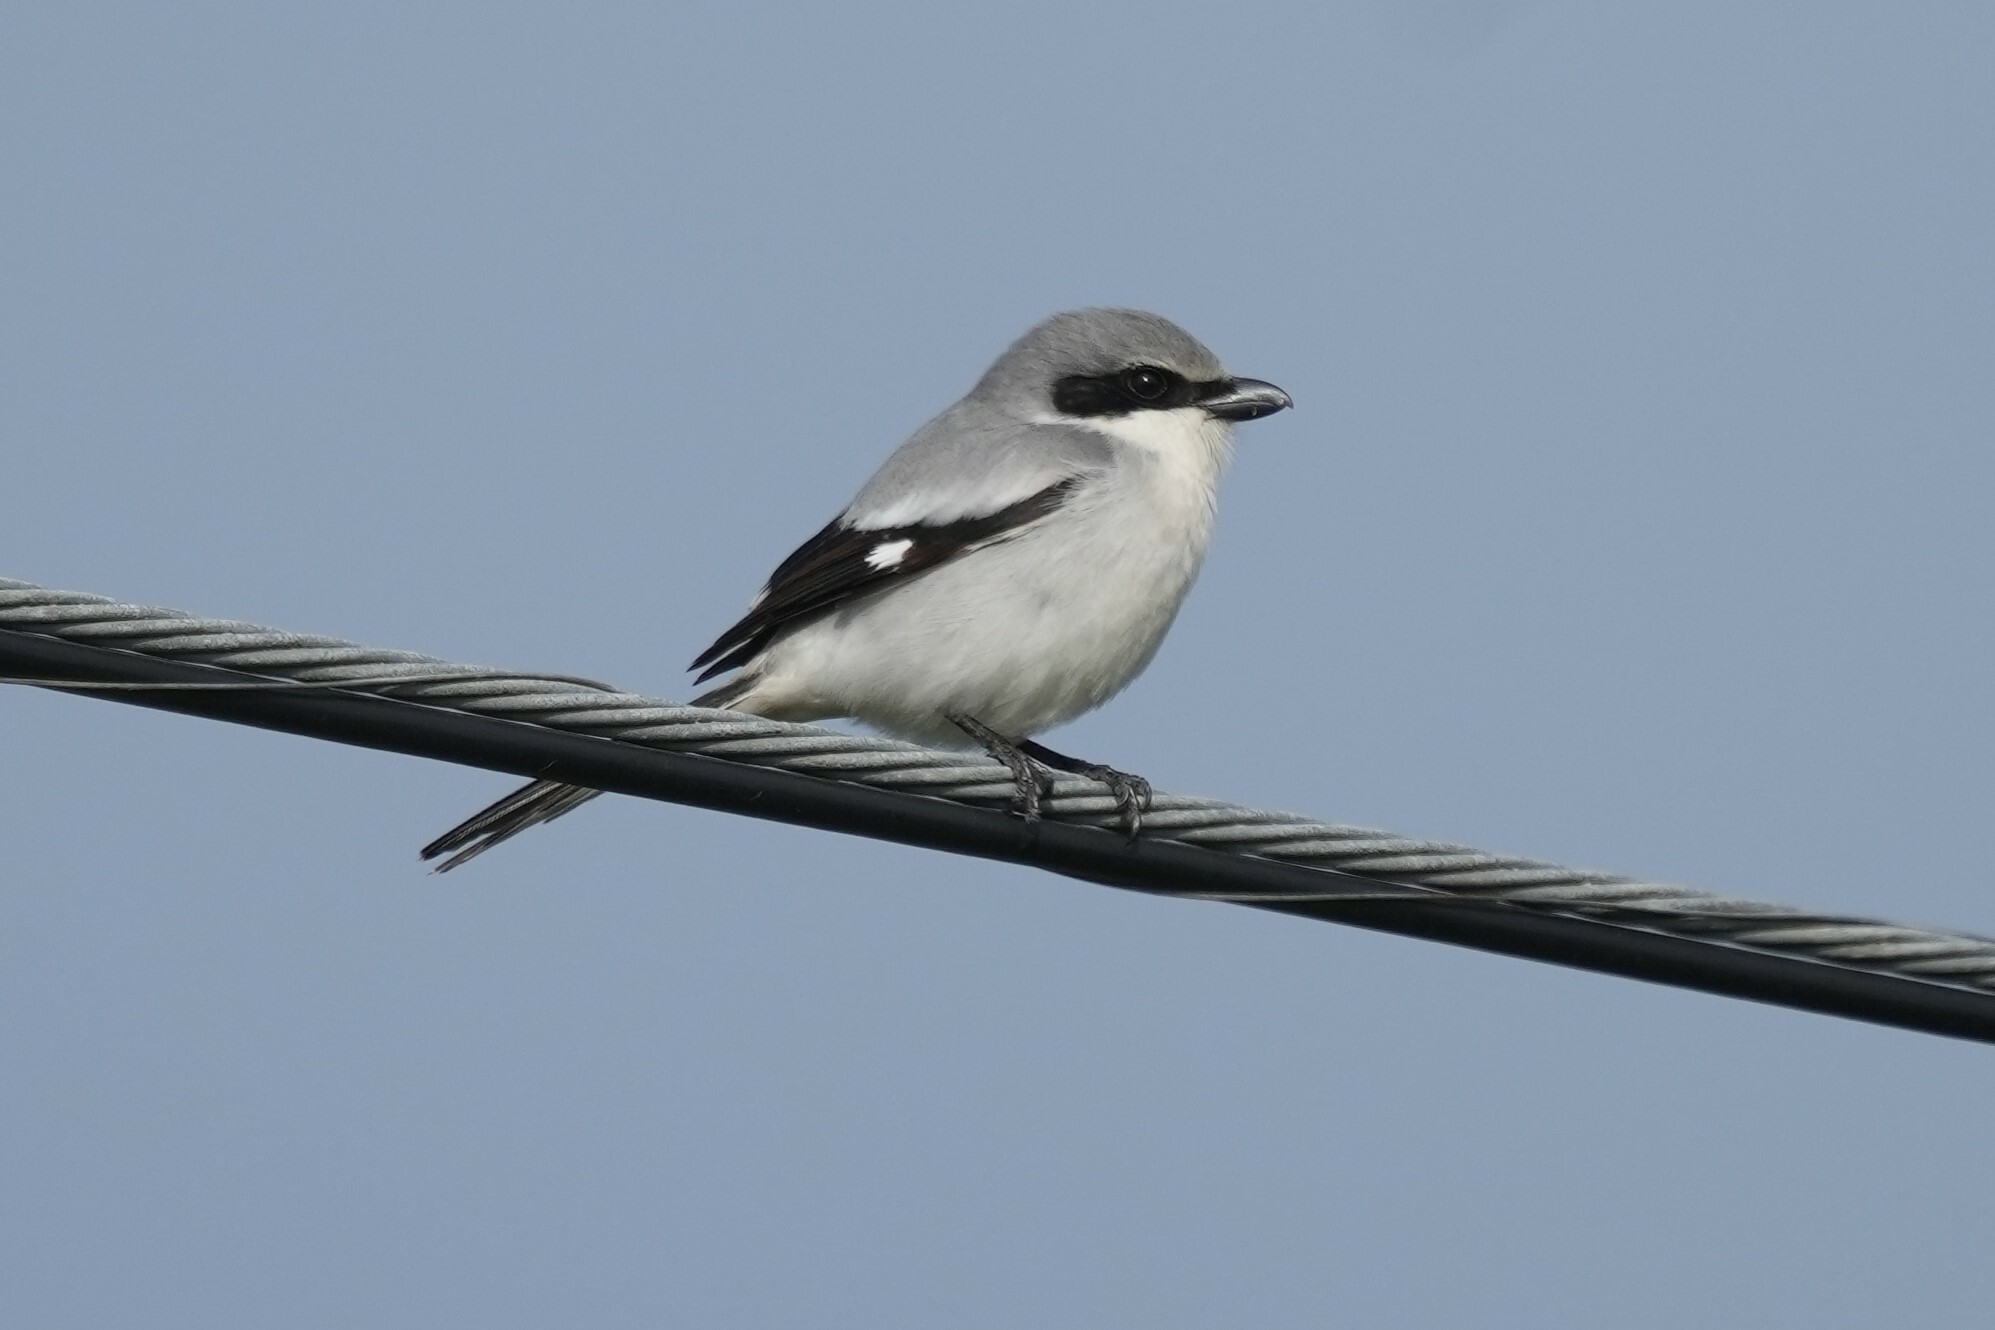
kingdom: Animalia
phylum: Chordata
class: Aves
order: Passeriformes
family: Laniidae
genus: Lanius
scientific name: Lanius ludovicianus
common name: Loggerhead shrike
